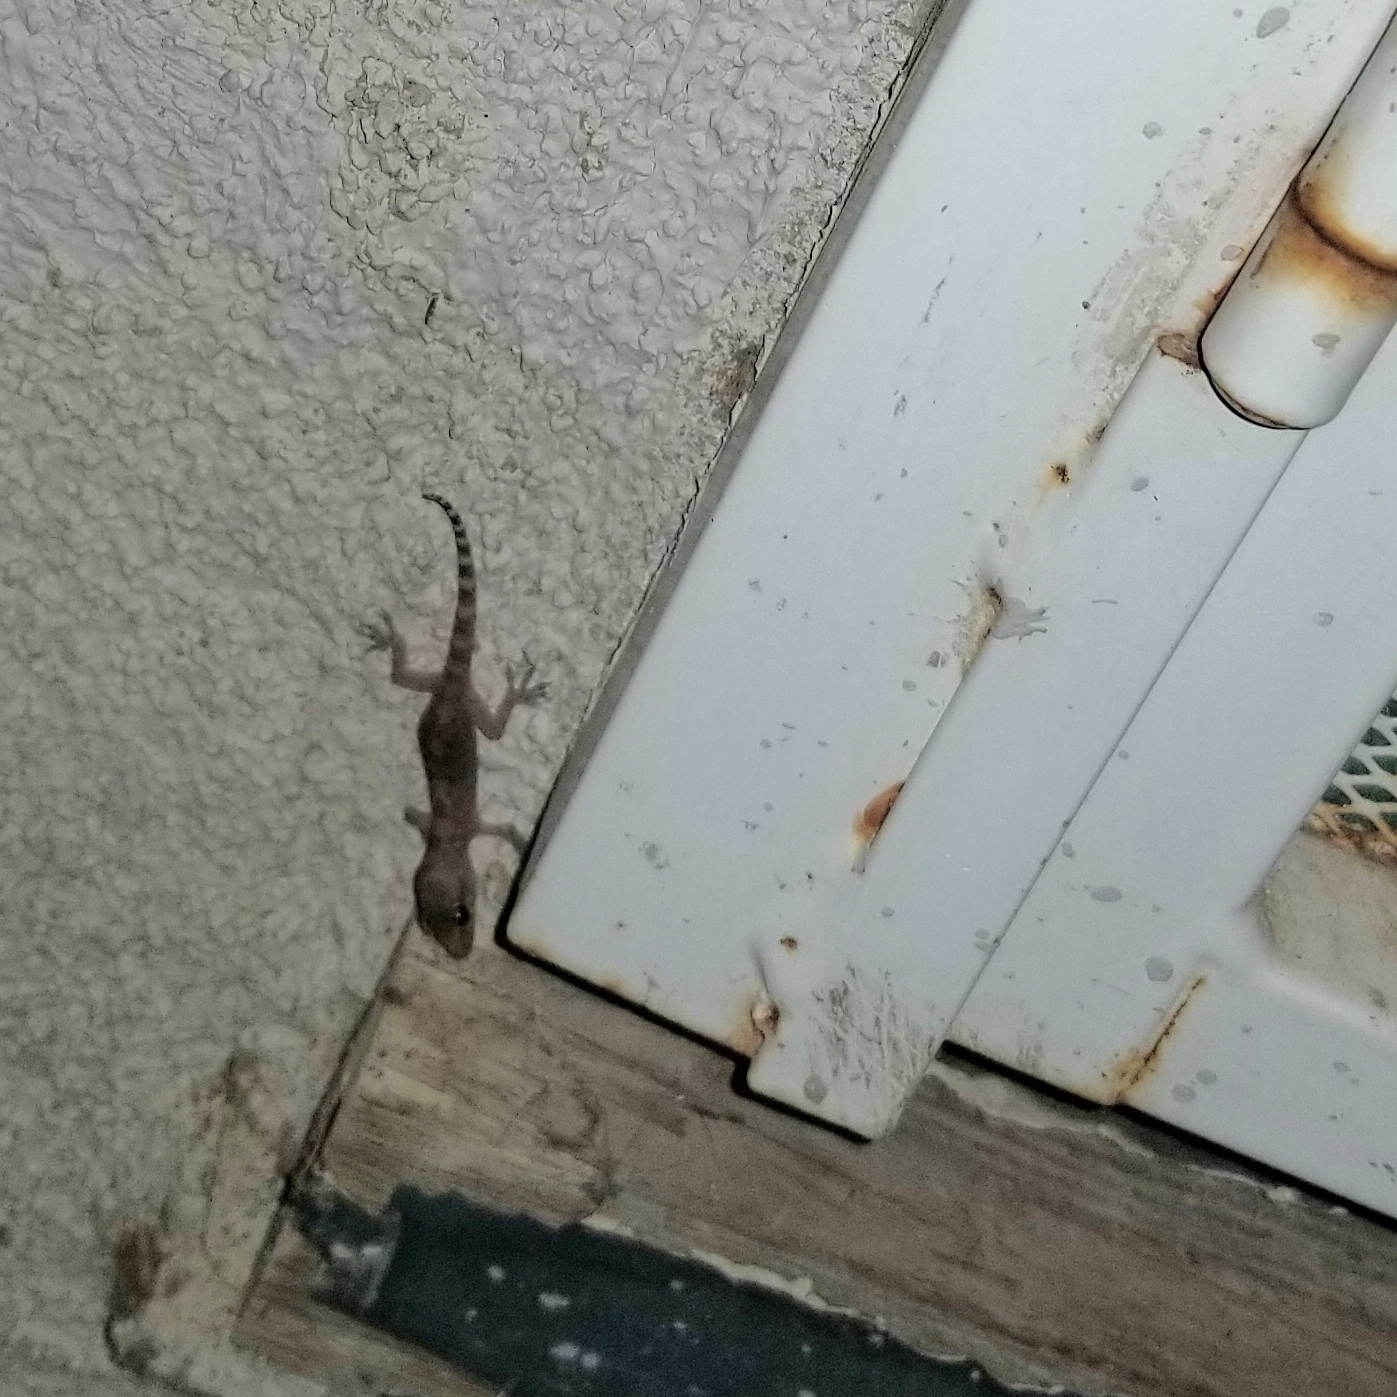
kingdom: Animalia
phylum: Chordata
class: Squamata
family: Gekkonidae
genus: Hemidactylus
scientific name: Hemidactylus turcicus
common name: Turkish gecko
